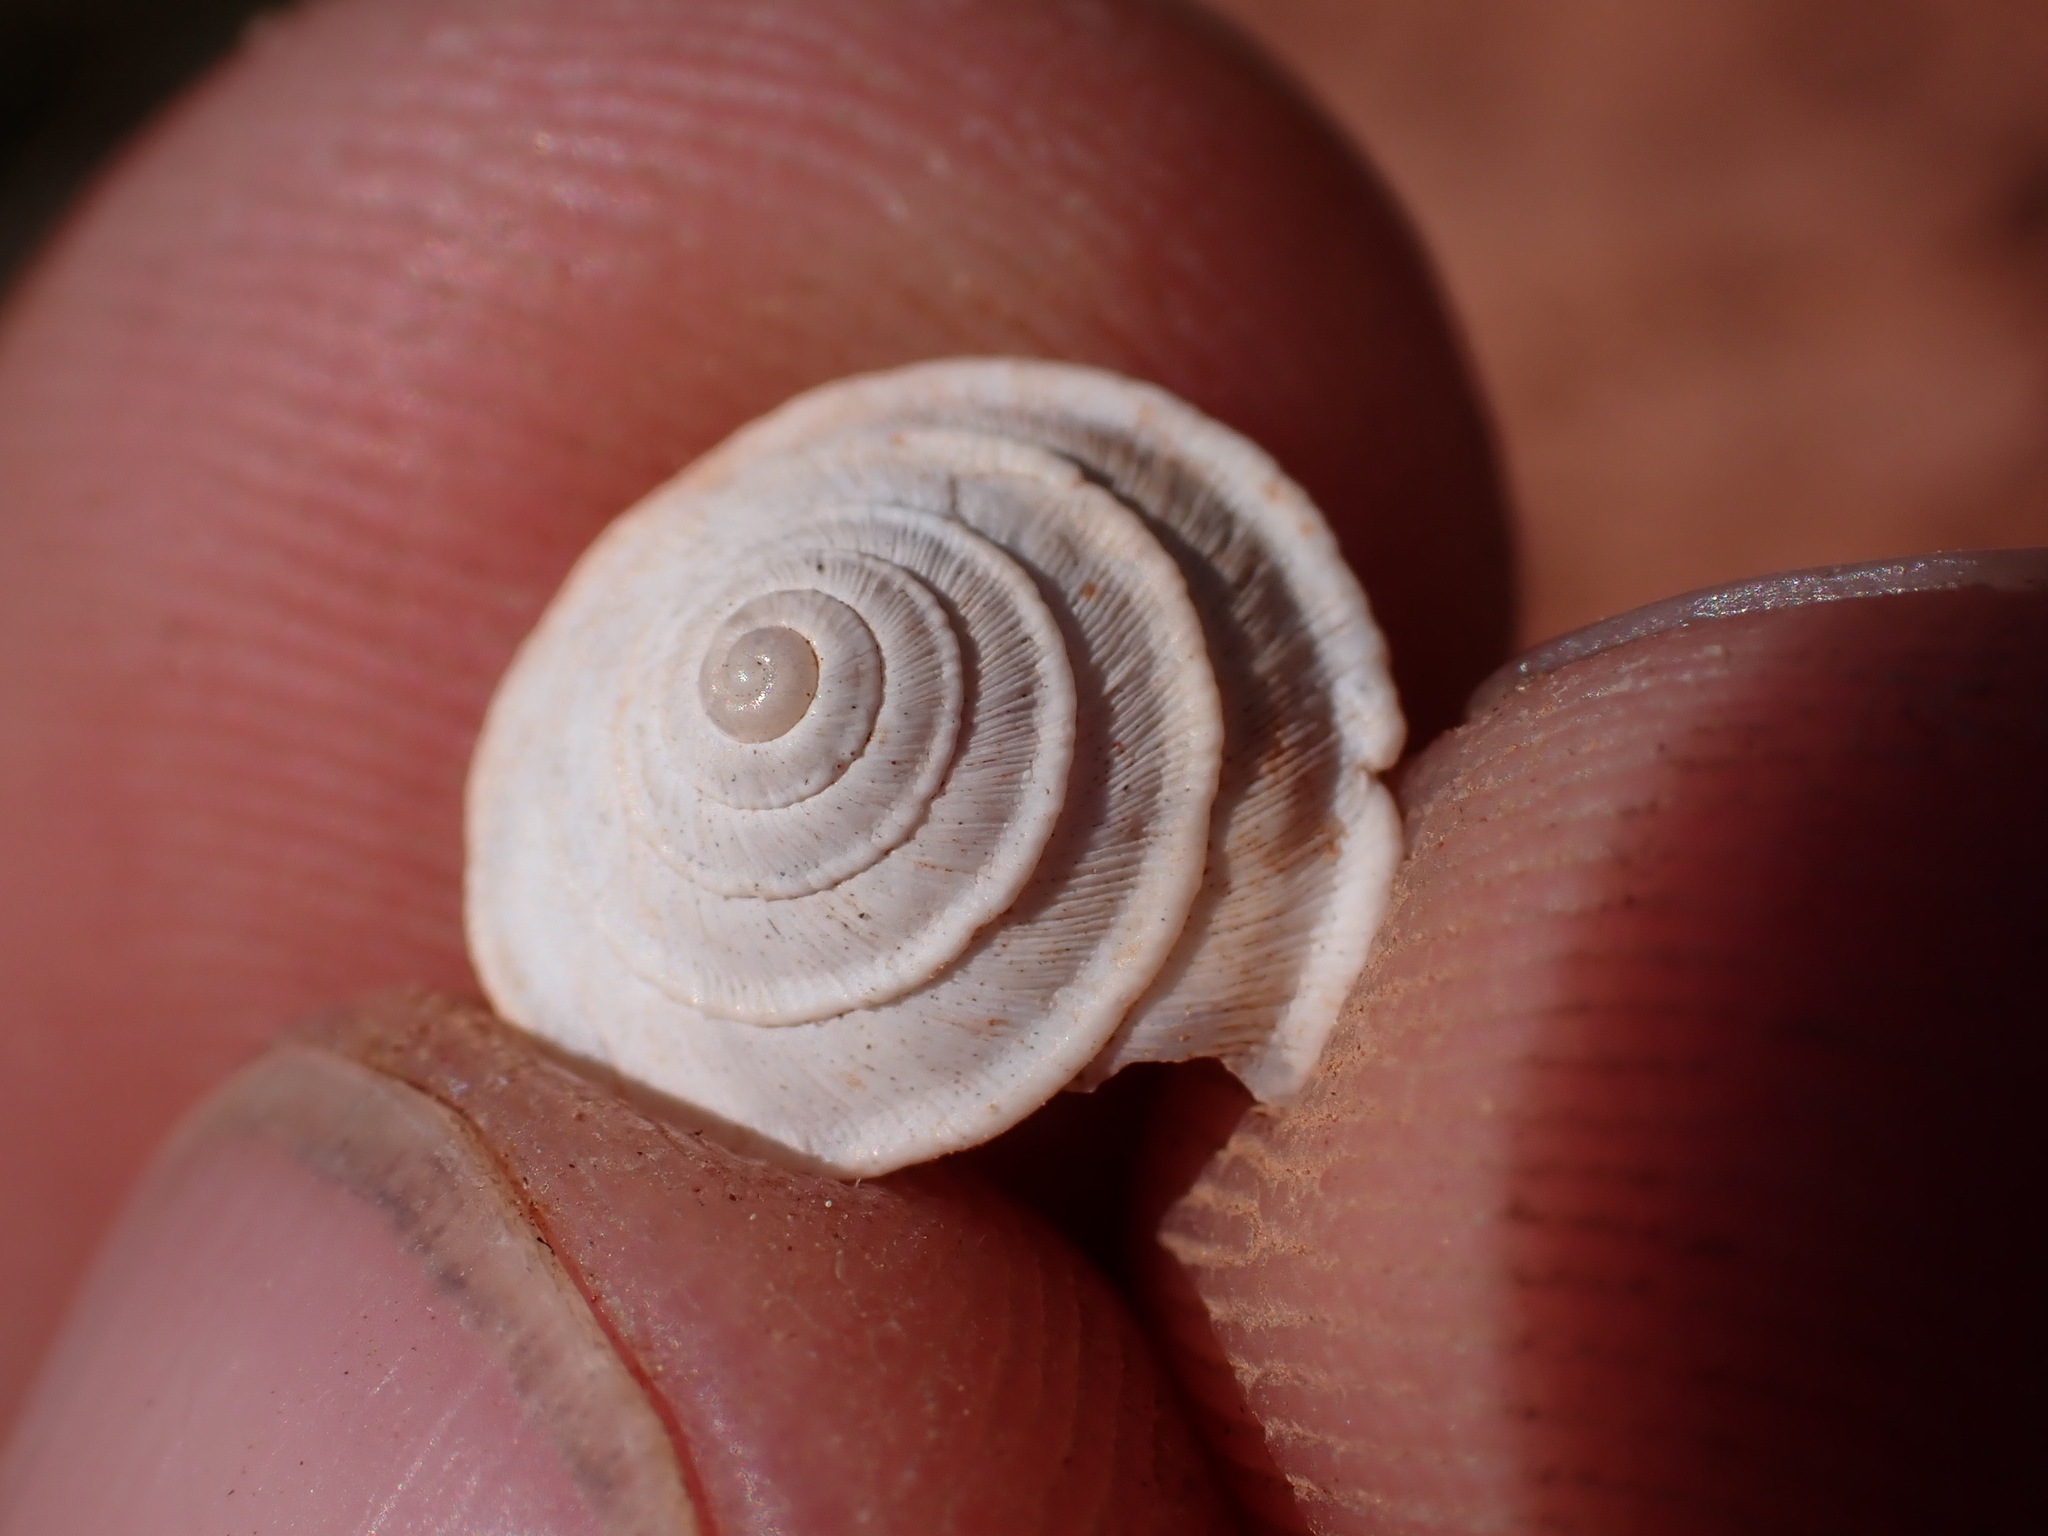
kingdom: Animalia
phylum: Mollusca
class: Gastropoda
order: Stylommatophora
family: Geomitridae
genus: Trochoidea
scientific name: Trochoidea elegans
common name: Elegant helicellid
